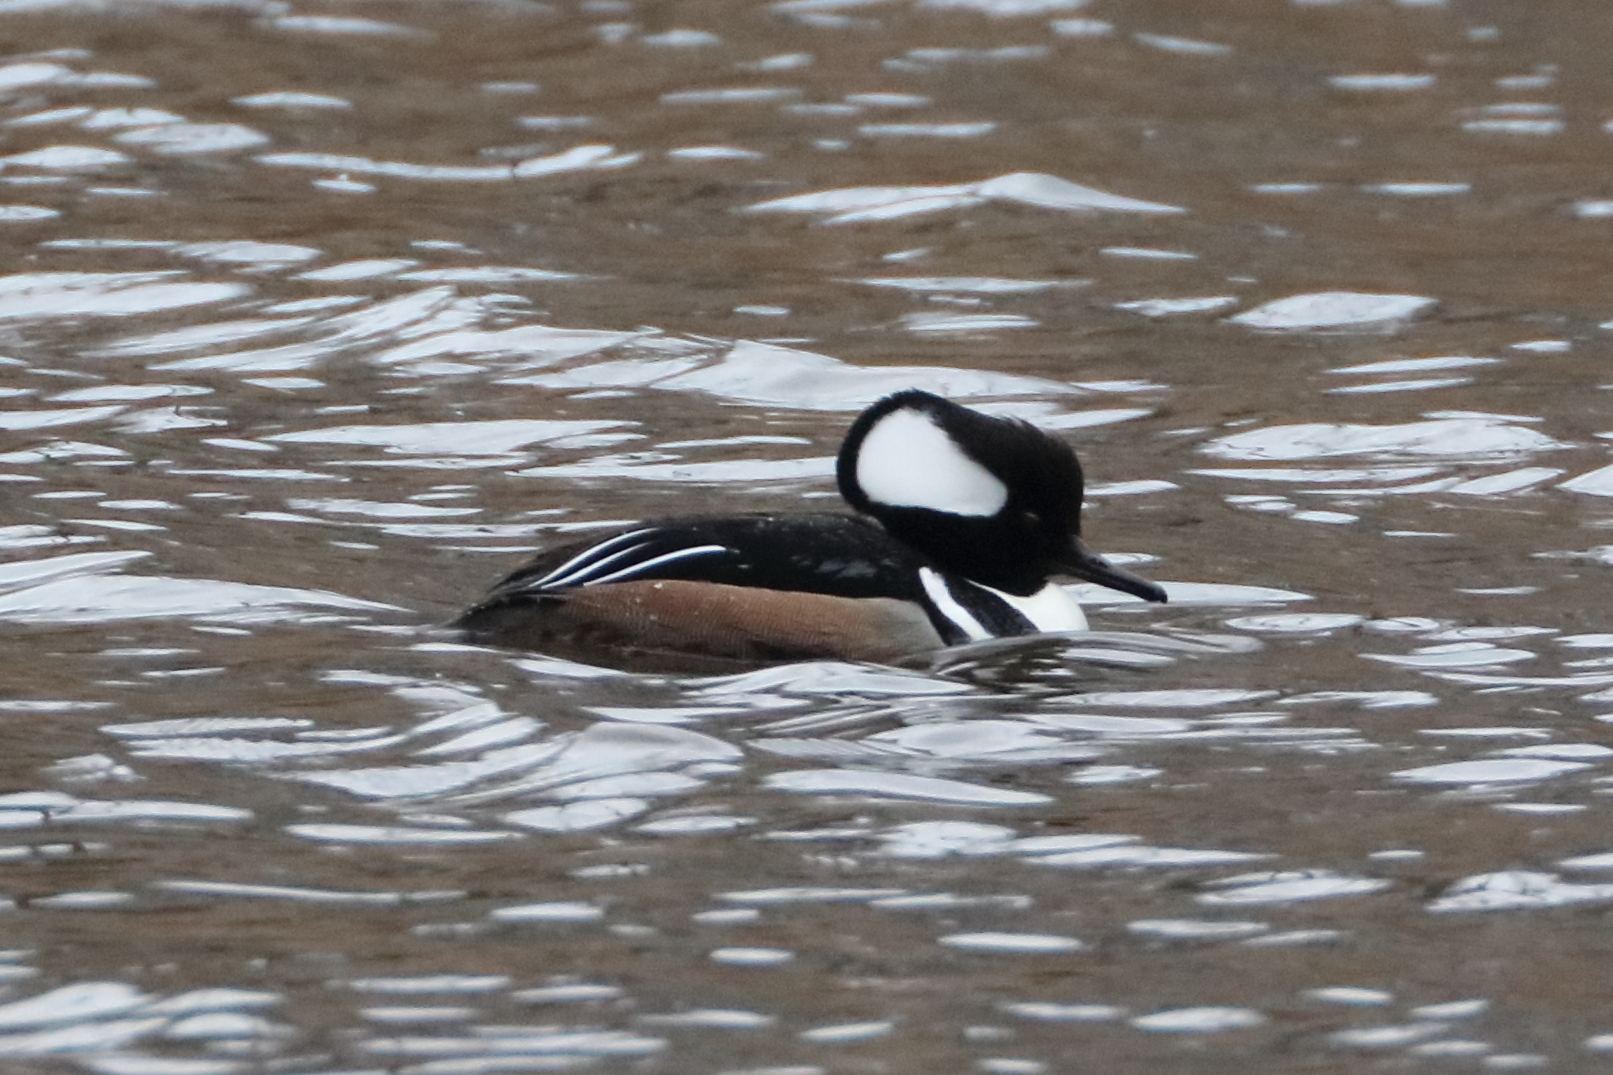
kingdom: Animalia
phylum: Chordata
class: Aves
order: Anseriformes
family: Anatidae
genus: Lophodytes
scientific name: Lophodytes cucullatus
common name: Hooded merganser
